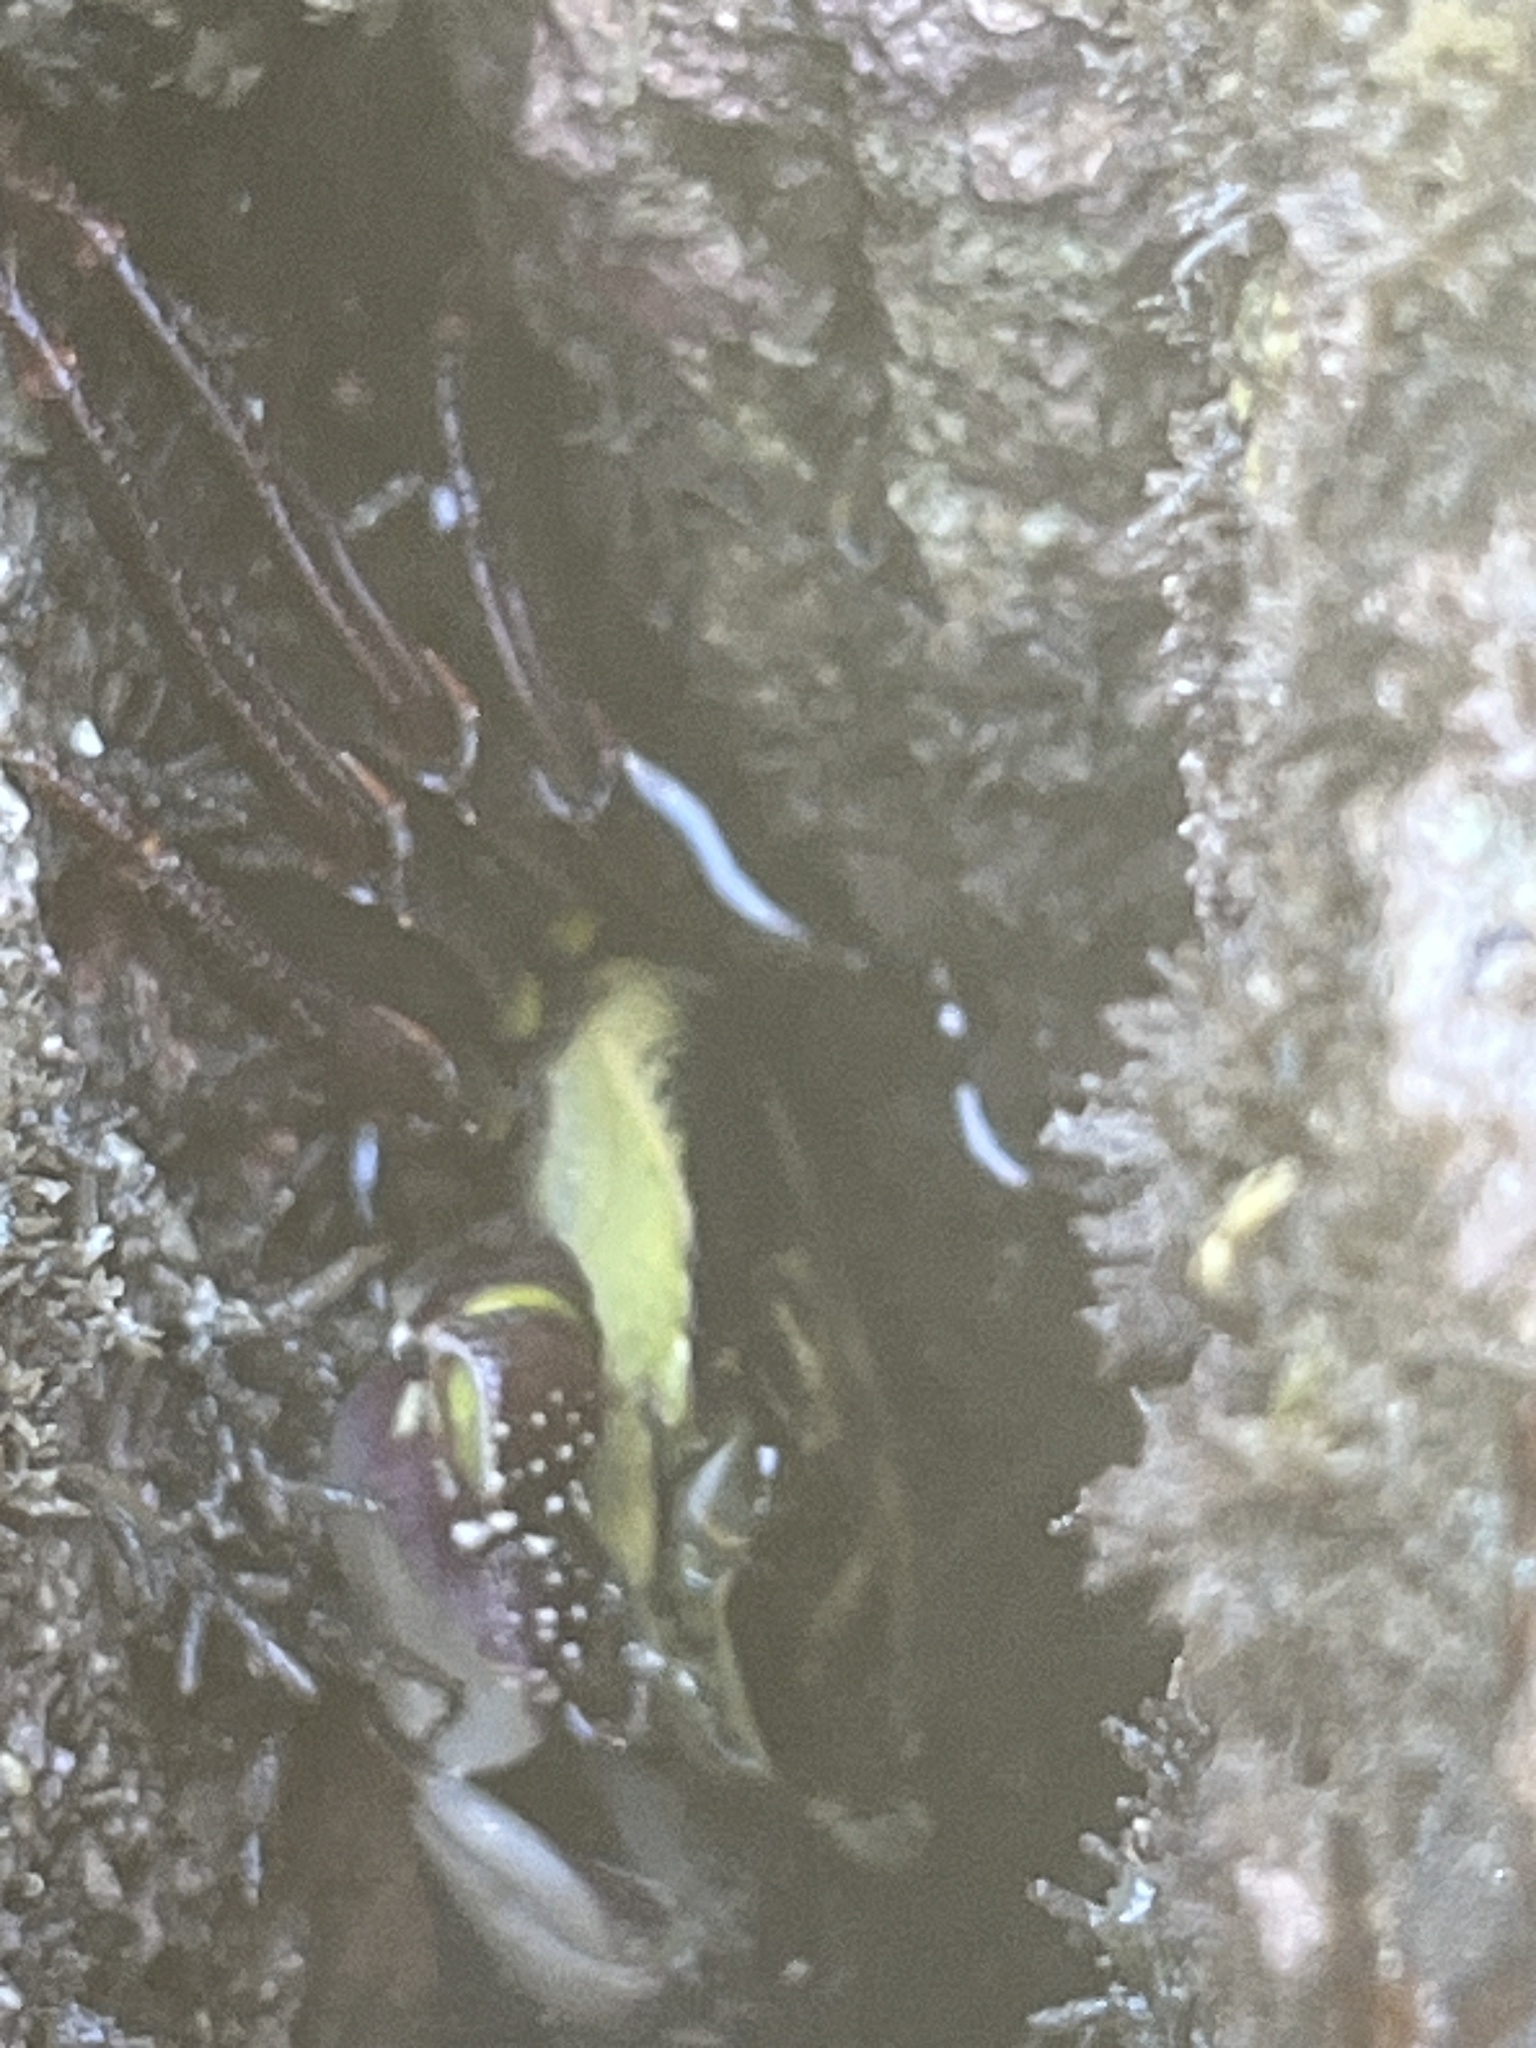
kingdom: Animalia
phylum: Arthropoda
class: Malacostraca
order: Decapoda
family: Grapsidae
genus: Leptograpsus
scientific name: Leptograpsus variegatus
